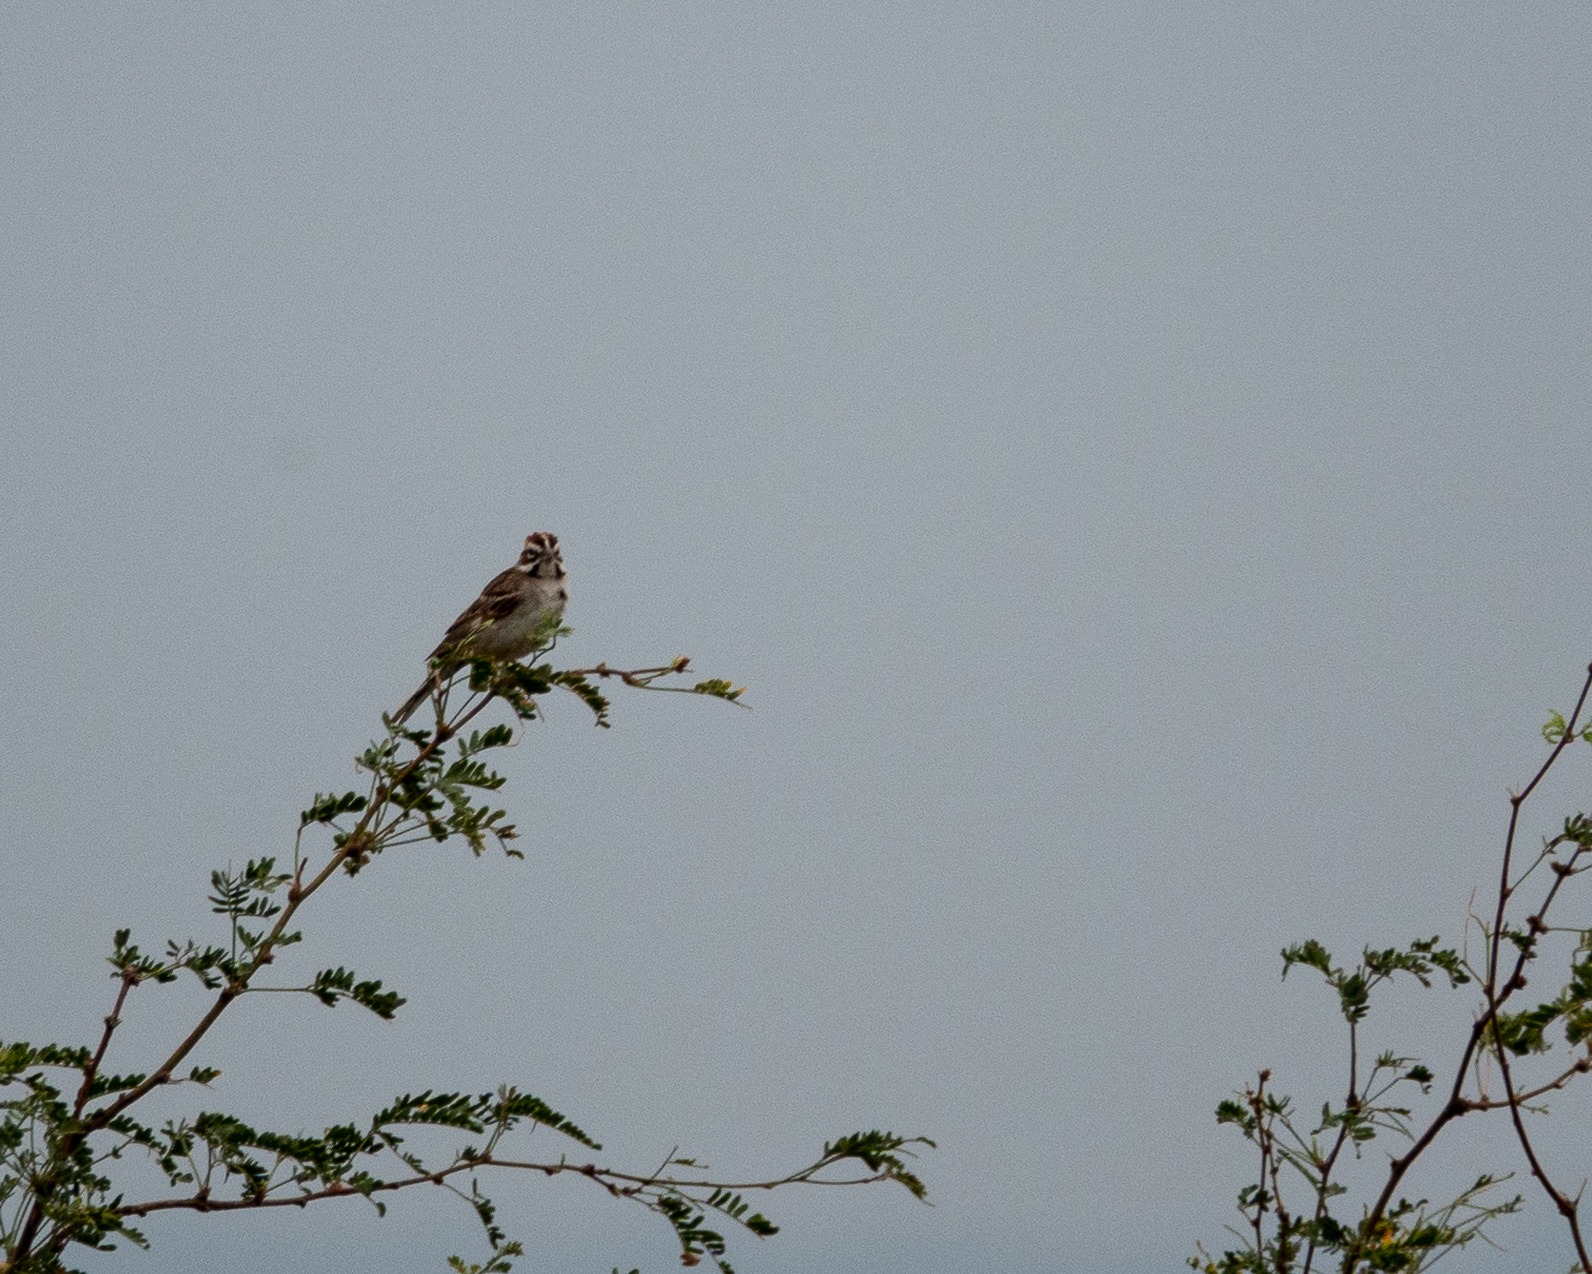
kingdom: Animalia
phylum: Chordata
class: Aves
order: Passeriformes
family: Passerellidae
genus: Chondestes
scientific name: Chondestes grammacus
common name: Lark sparrow
